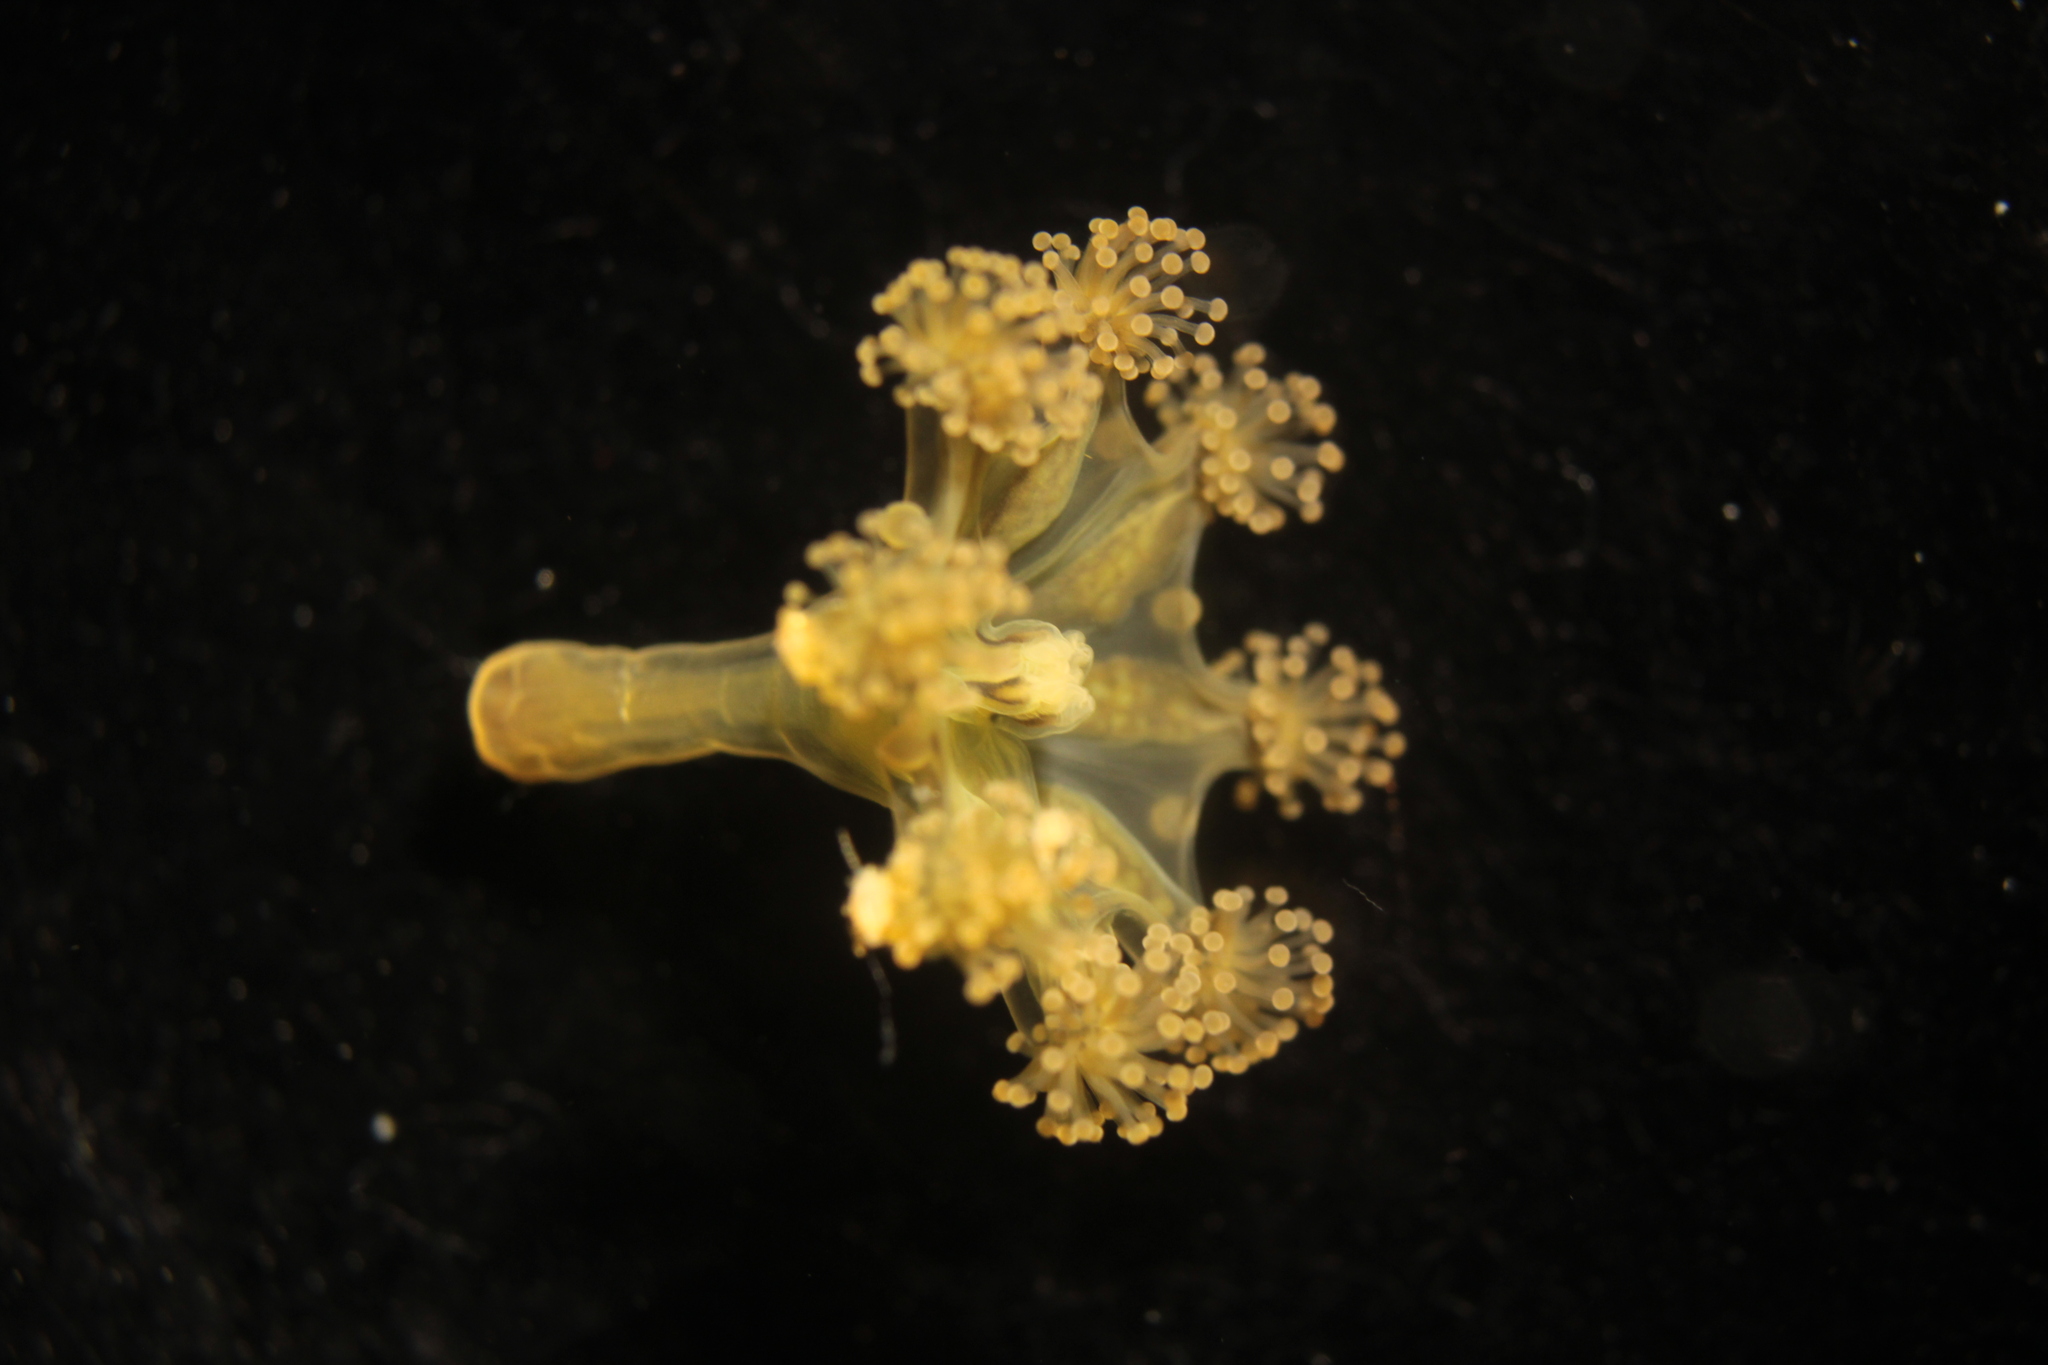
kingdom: Animalia
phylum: Cnidaria
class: Staurozoa
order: Stauromedusae
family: Haliclystidae
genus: Haliclystus
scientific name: Haliclystus auricula
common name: Kaleidoscope jellyfish
